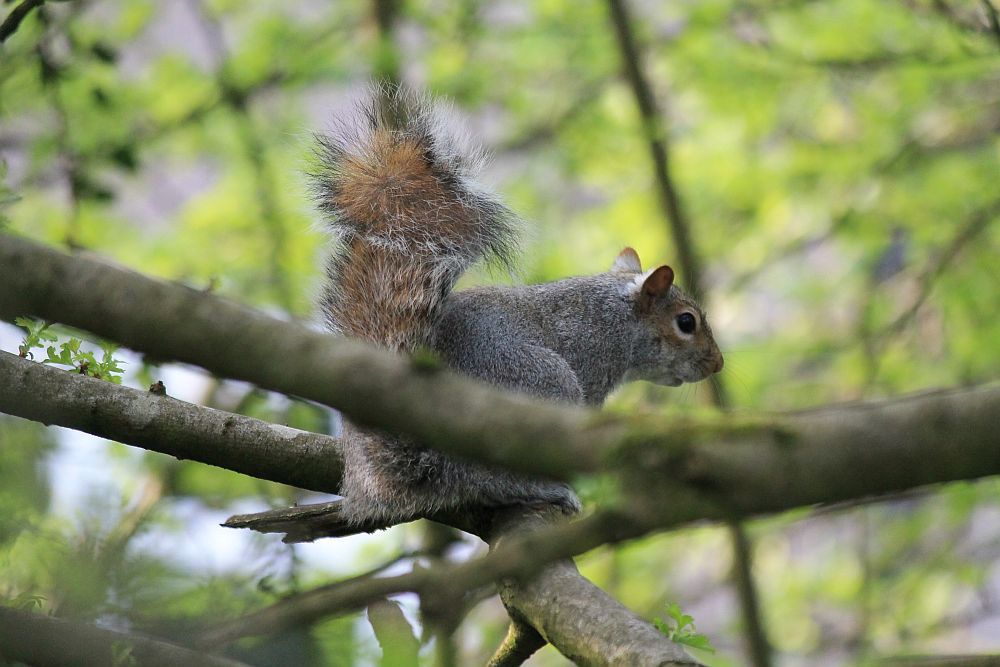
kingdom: Animalia
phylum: Chordata
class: Mammalia
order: Rodentia
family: Sciuridae
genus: Sciurus
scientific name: Sciurus carolinensis
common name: Eastern gray squirrel
